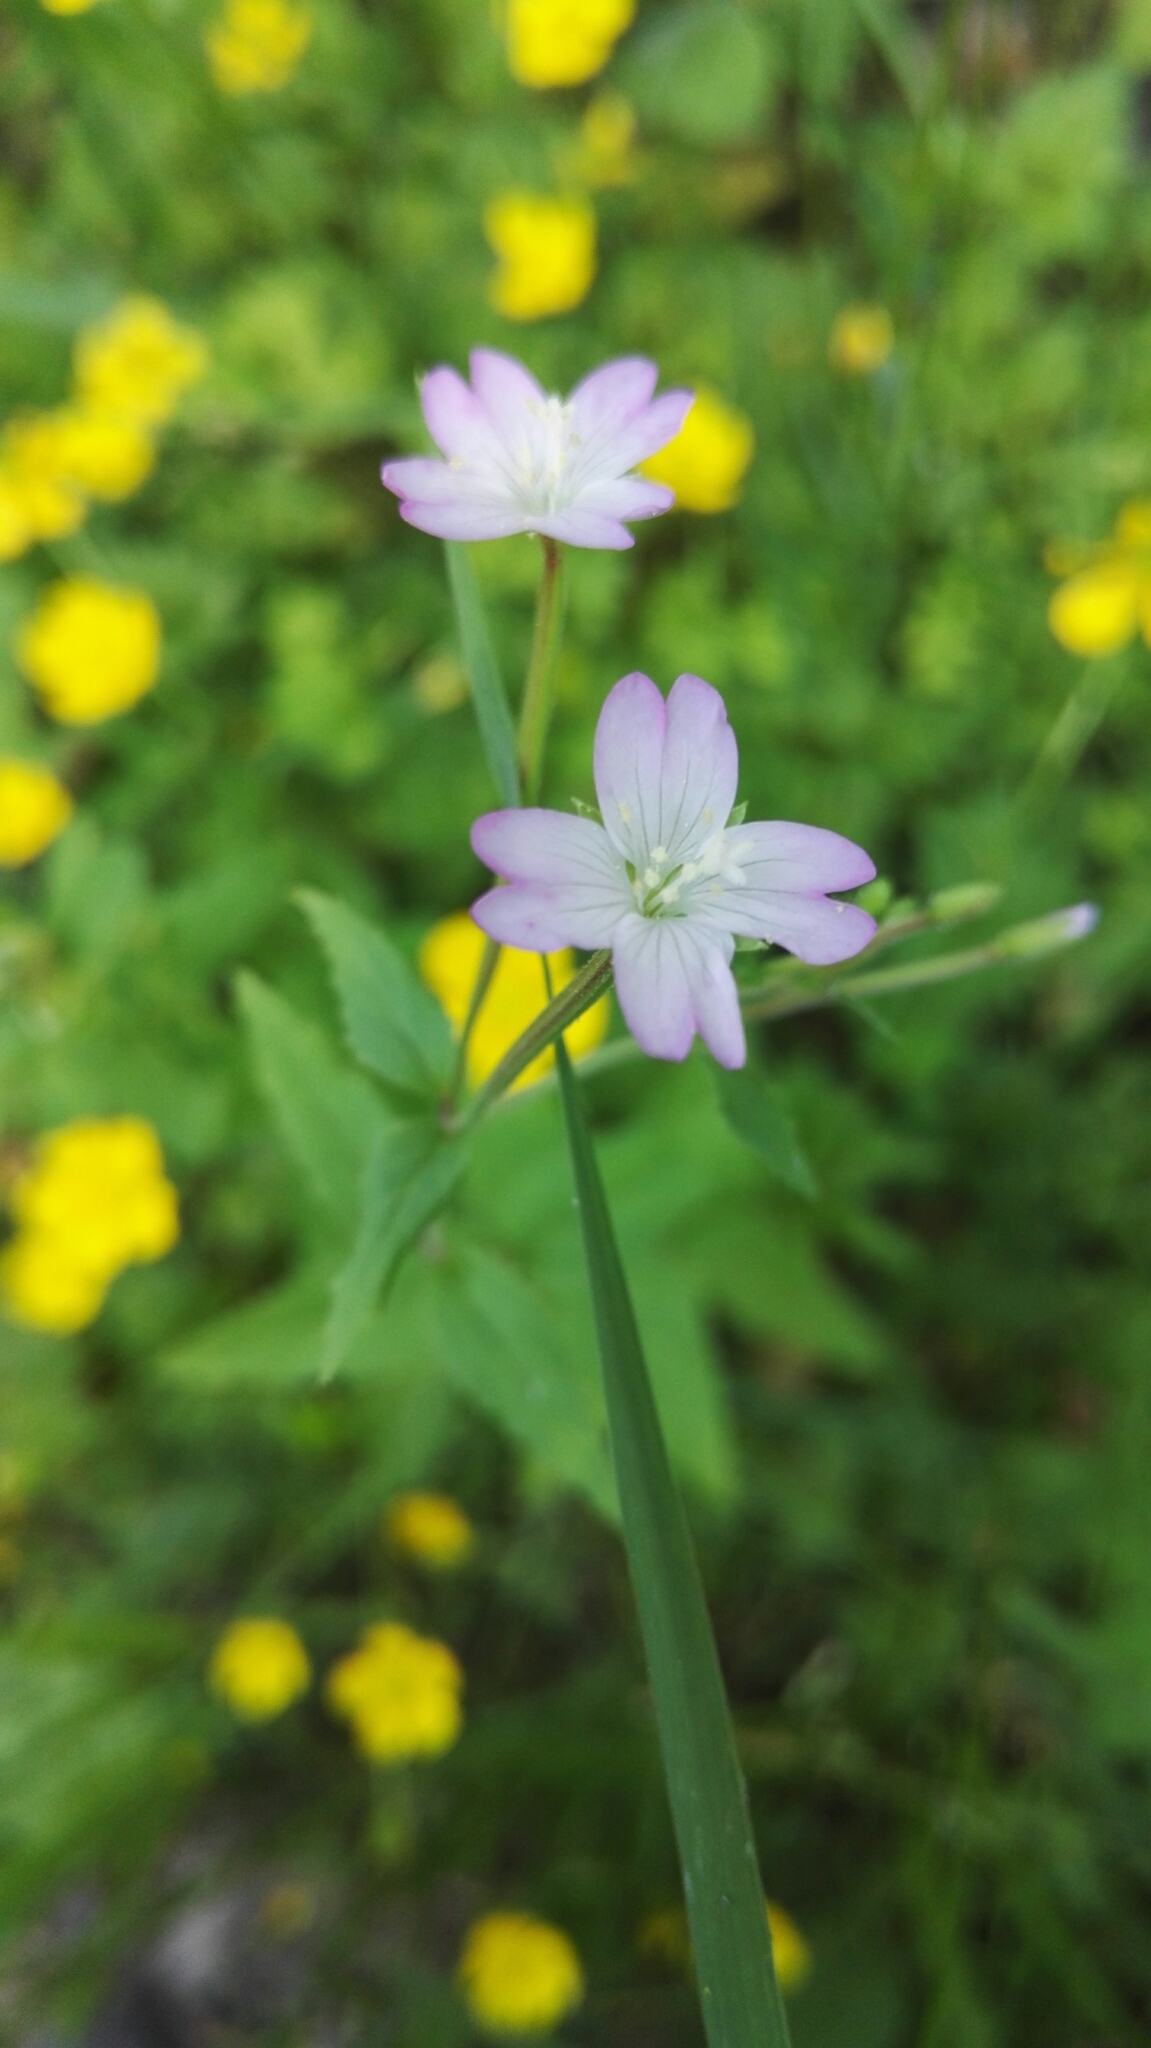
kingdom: Plantae
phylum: Tracheophyta
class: Magnoliopsida
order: Myrtales
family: Onagraceae
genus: Epilobium
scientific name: Epilobium montanum
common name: Broad-leaved willowherb
